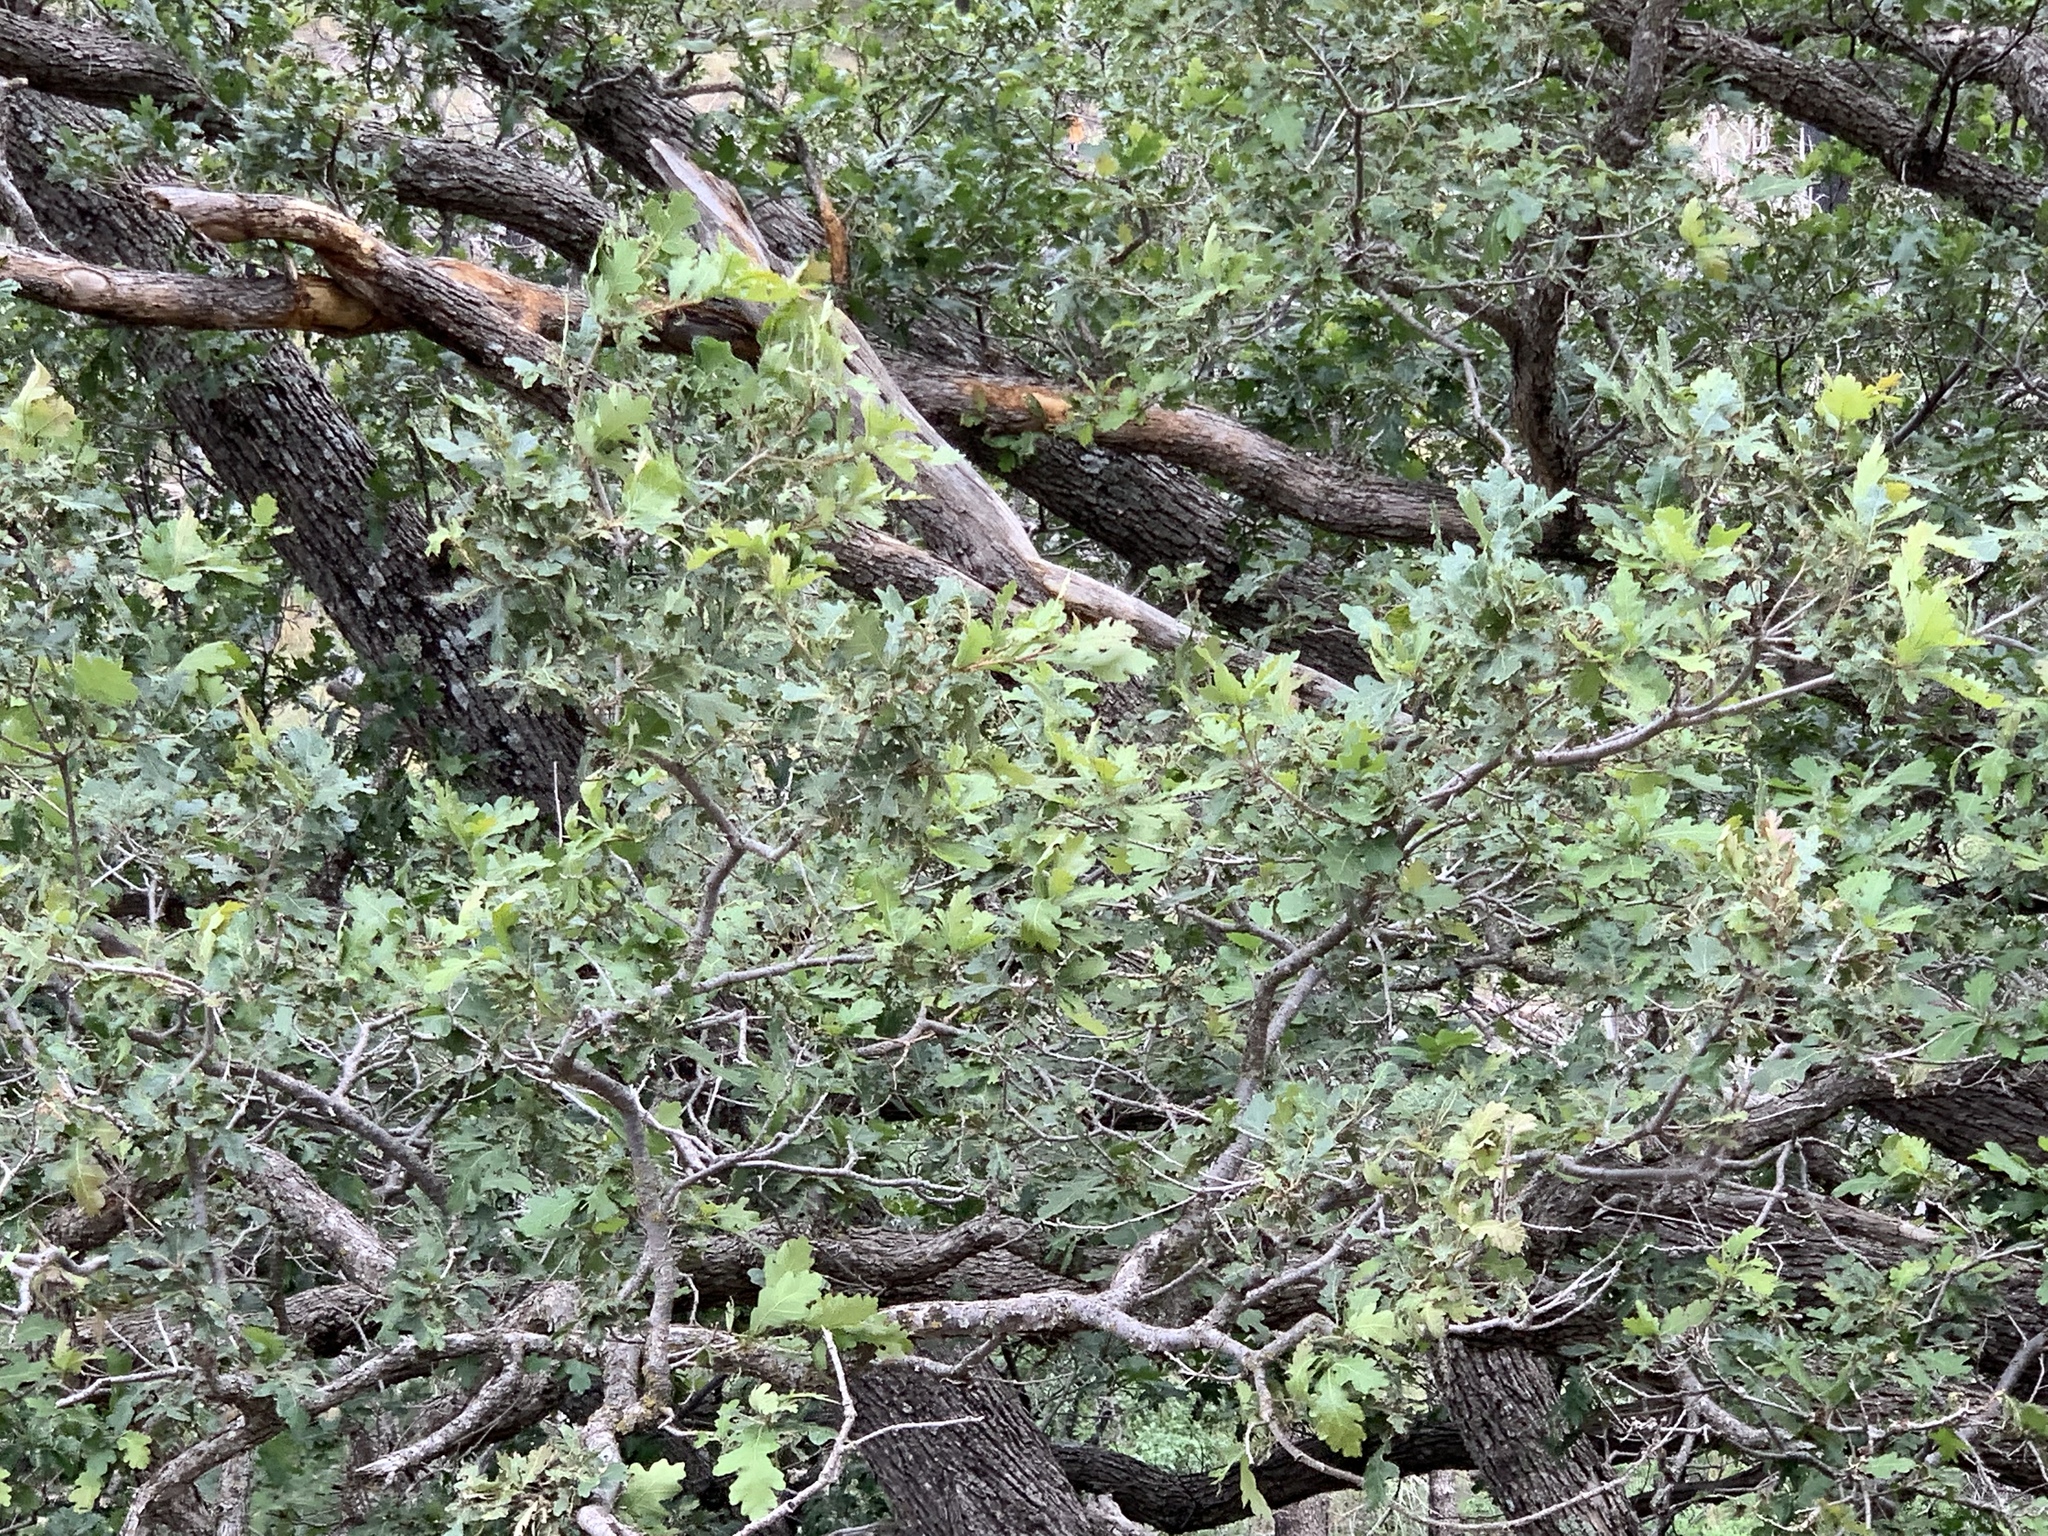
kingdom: Plantae
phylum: Tracheophyta
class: Magnoliopsida
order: Fagales
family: Fagaceae
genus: Quercus
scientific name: Quercus gambelii
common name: Gambel oak
